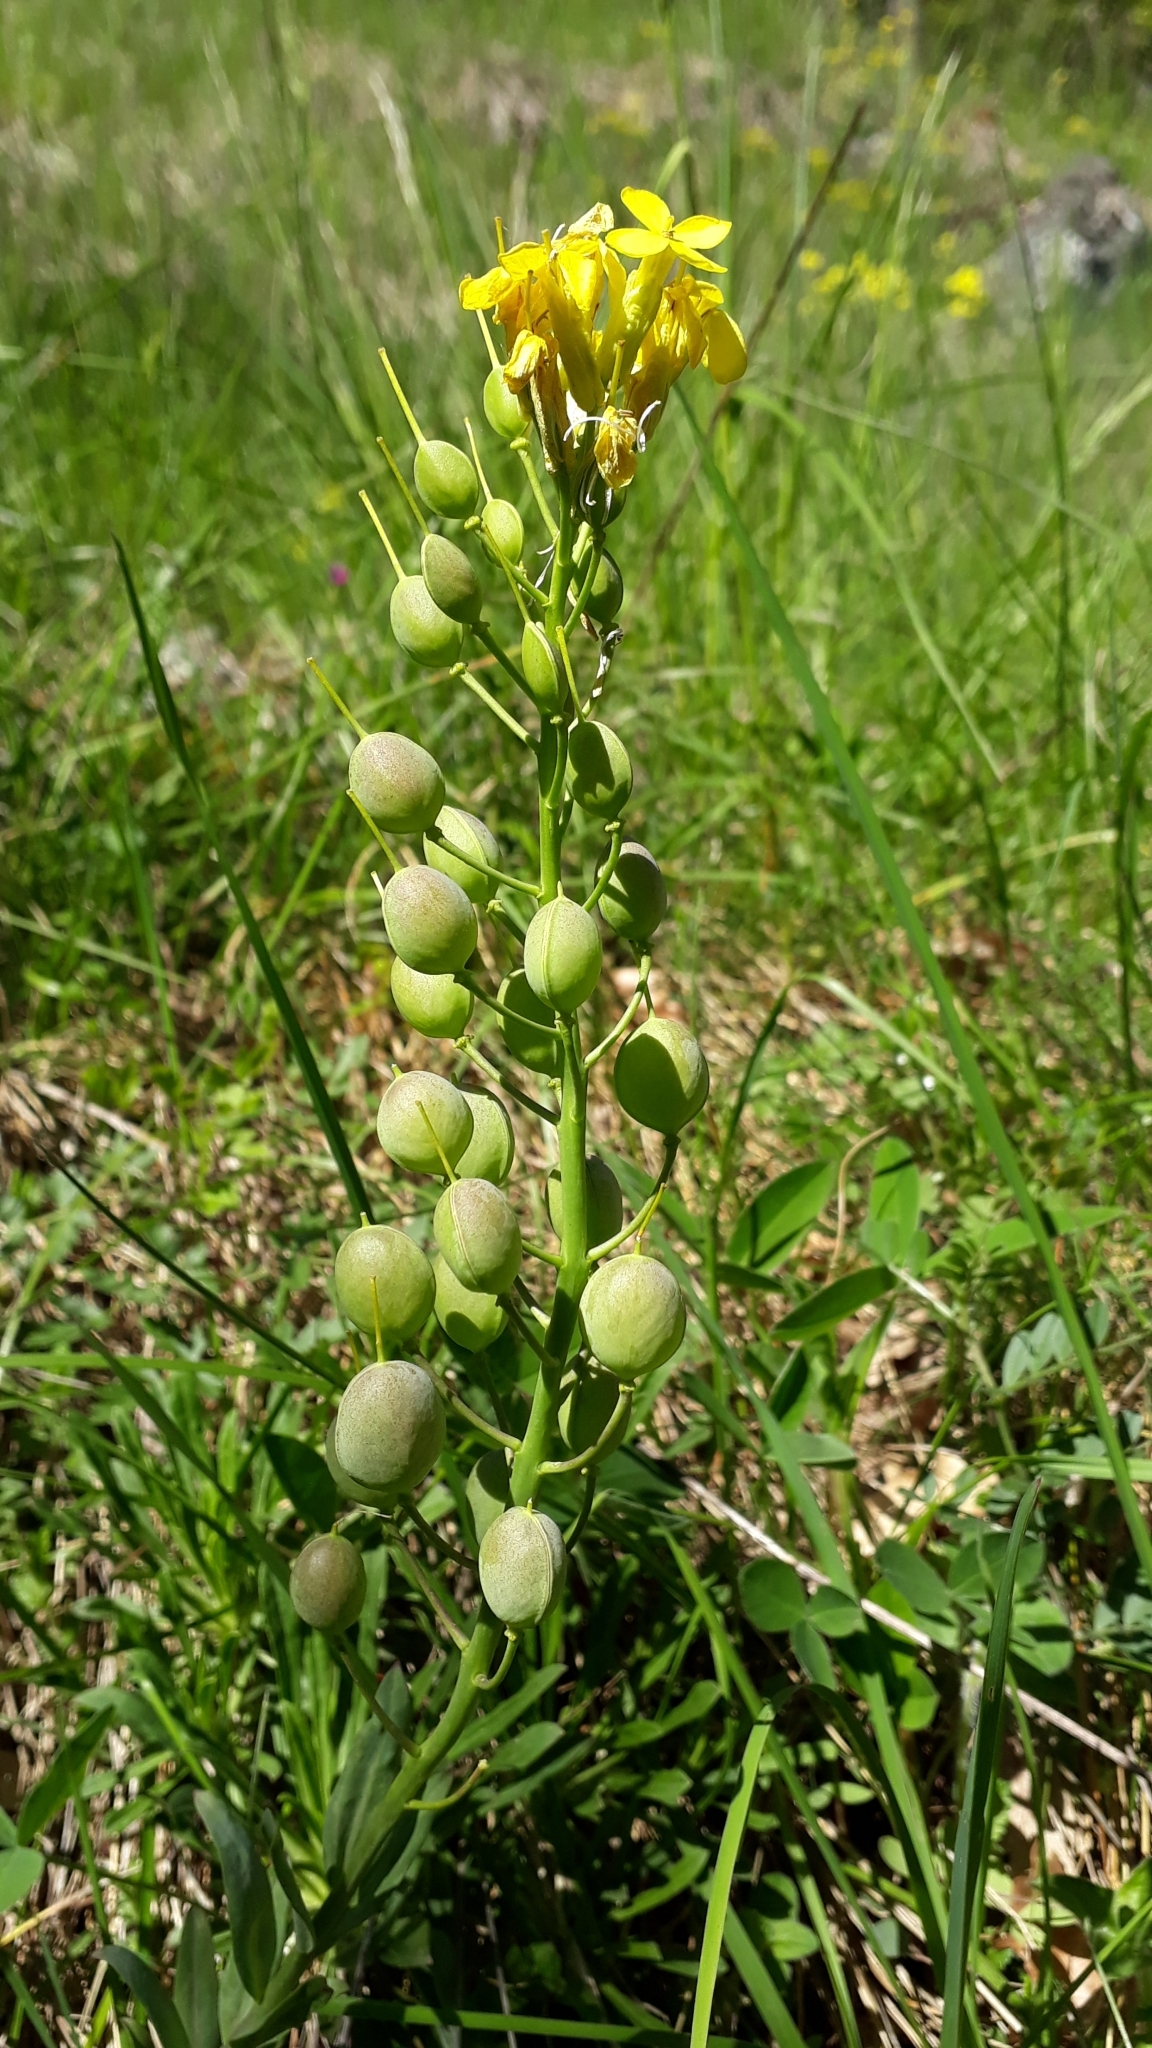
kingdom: Plantae
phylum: Tracheophyta
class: Magnoliopsida
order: Brassicales
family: Brassicaceae
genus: Alyssoides
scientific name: Alyssoides utriculata
